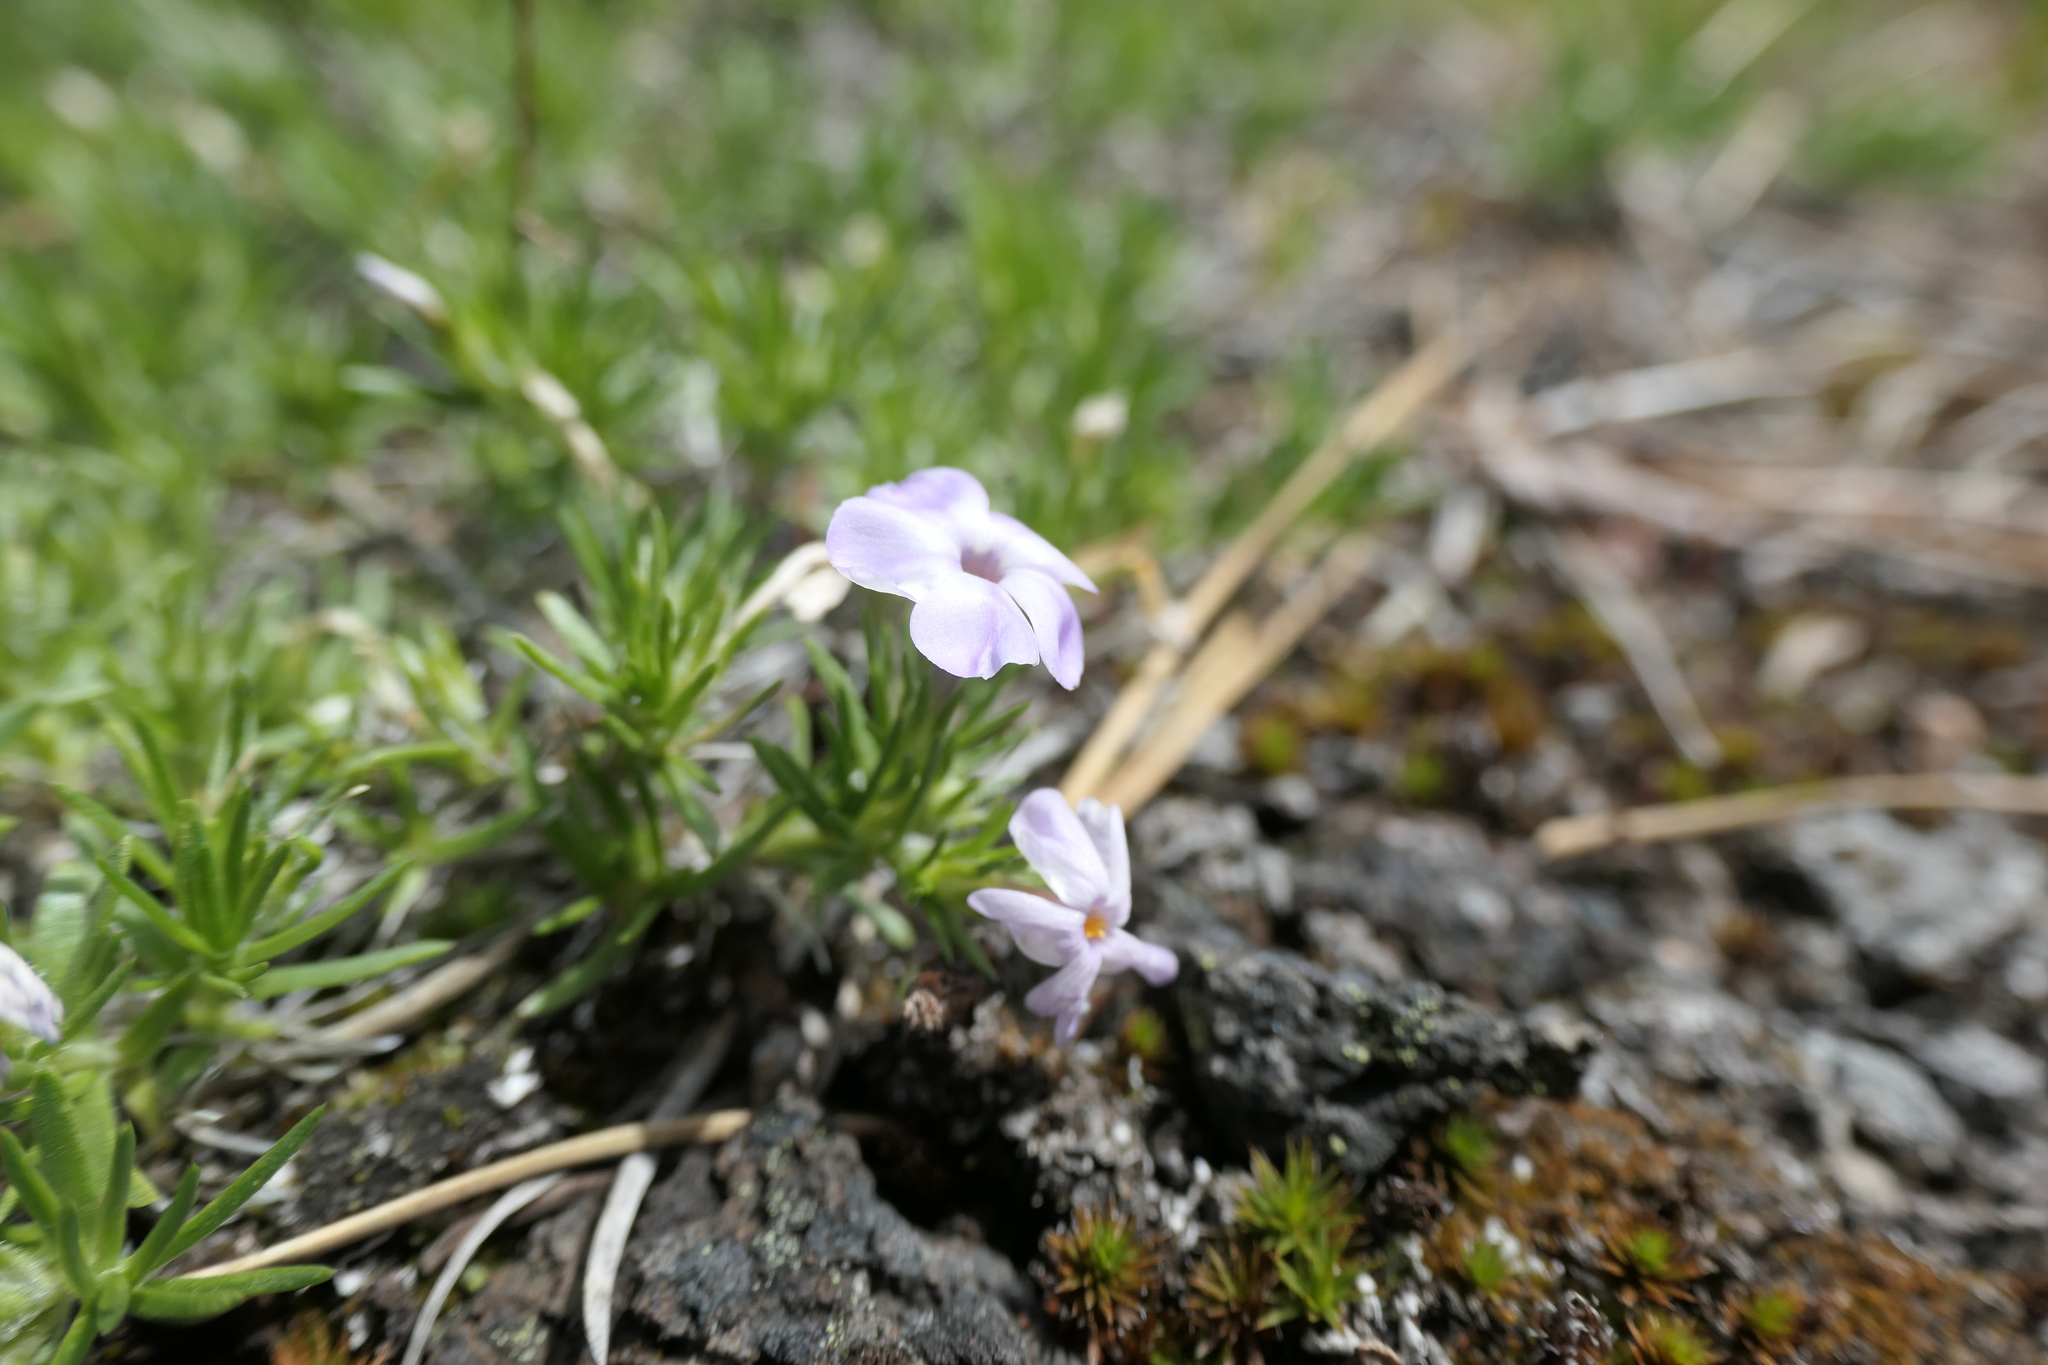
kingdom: Plantae
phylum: Tracheophyta
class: Magnoliopsida
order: Ericales
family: Polemoniaceae
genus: Phlox
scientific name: Phlox diffusa
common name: Mat phlox
